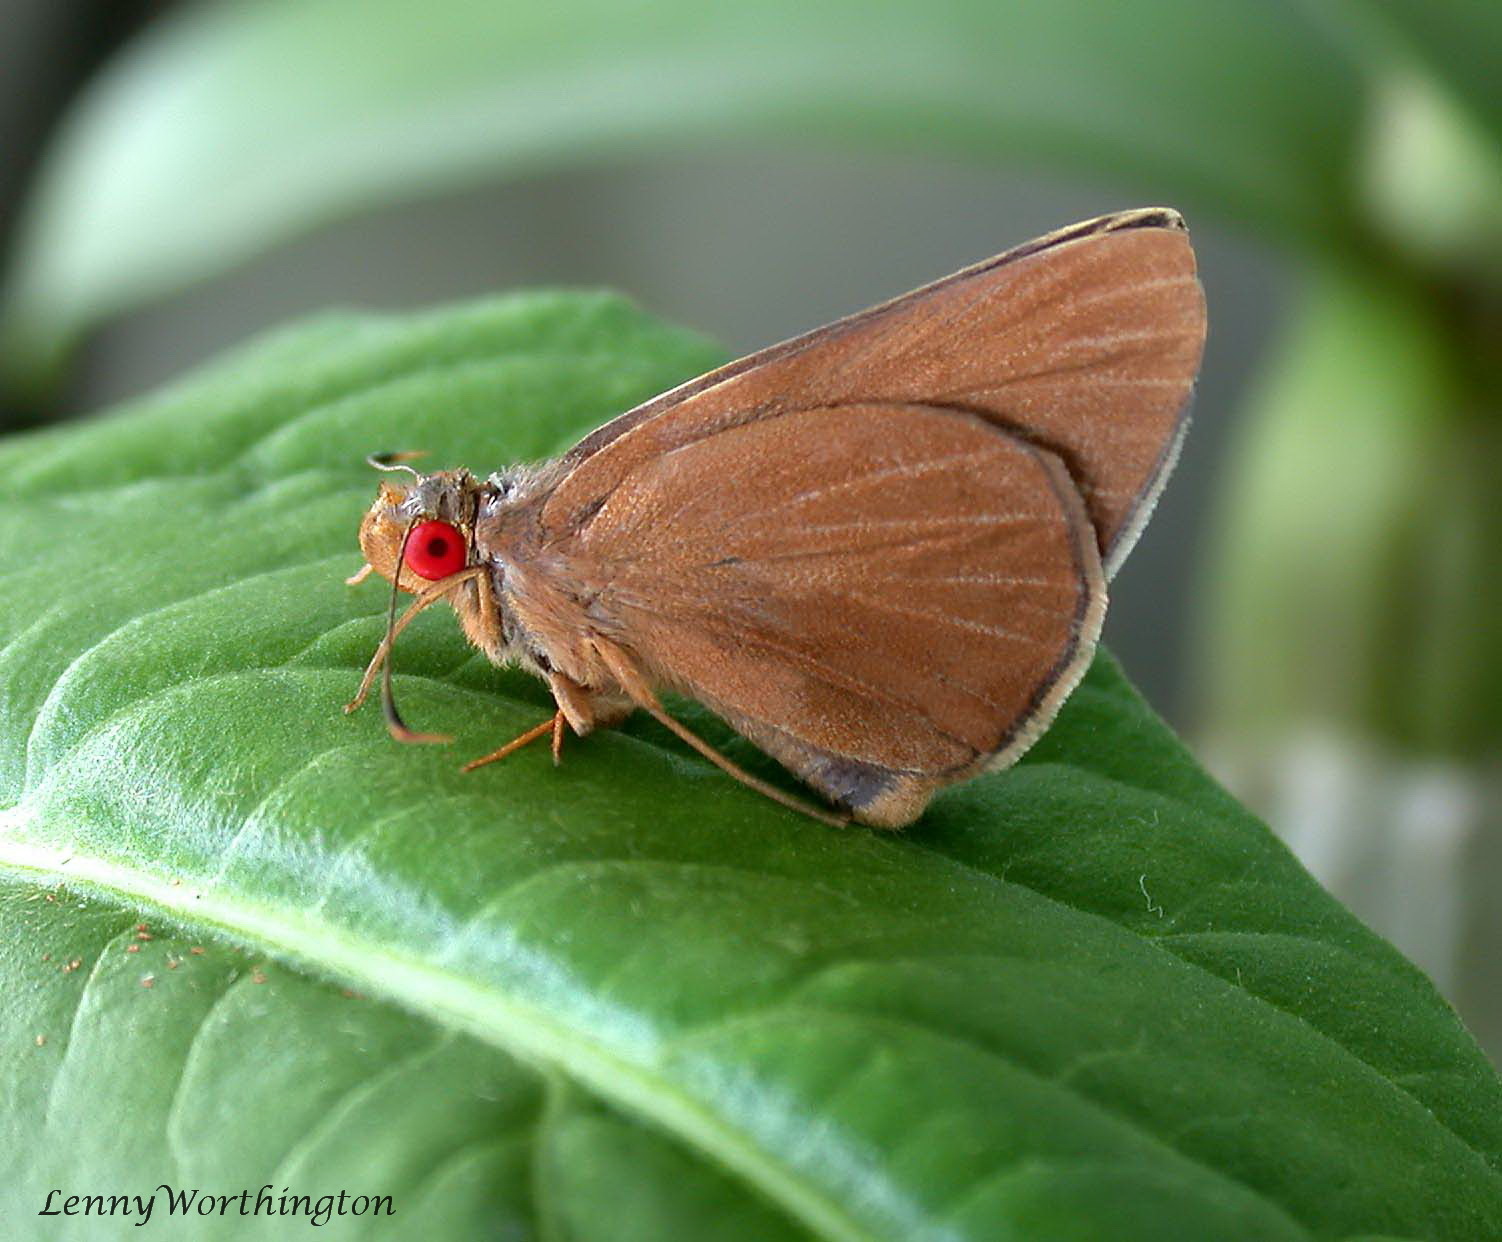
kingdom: Animalia
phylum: Arthropoda
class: Insecta
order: Lepidoptera
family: Hesperiidae
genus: Matapa
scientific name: Matapa aria
